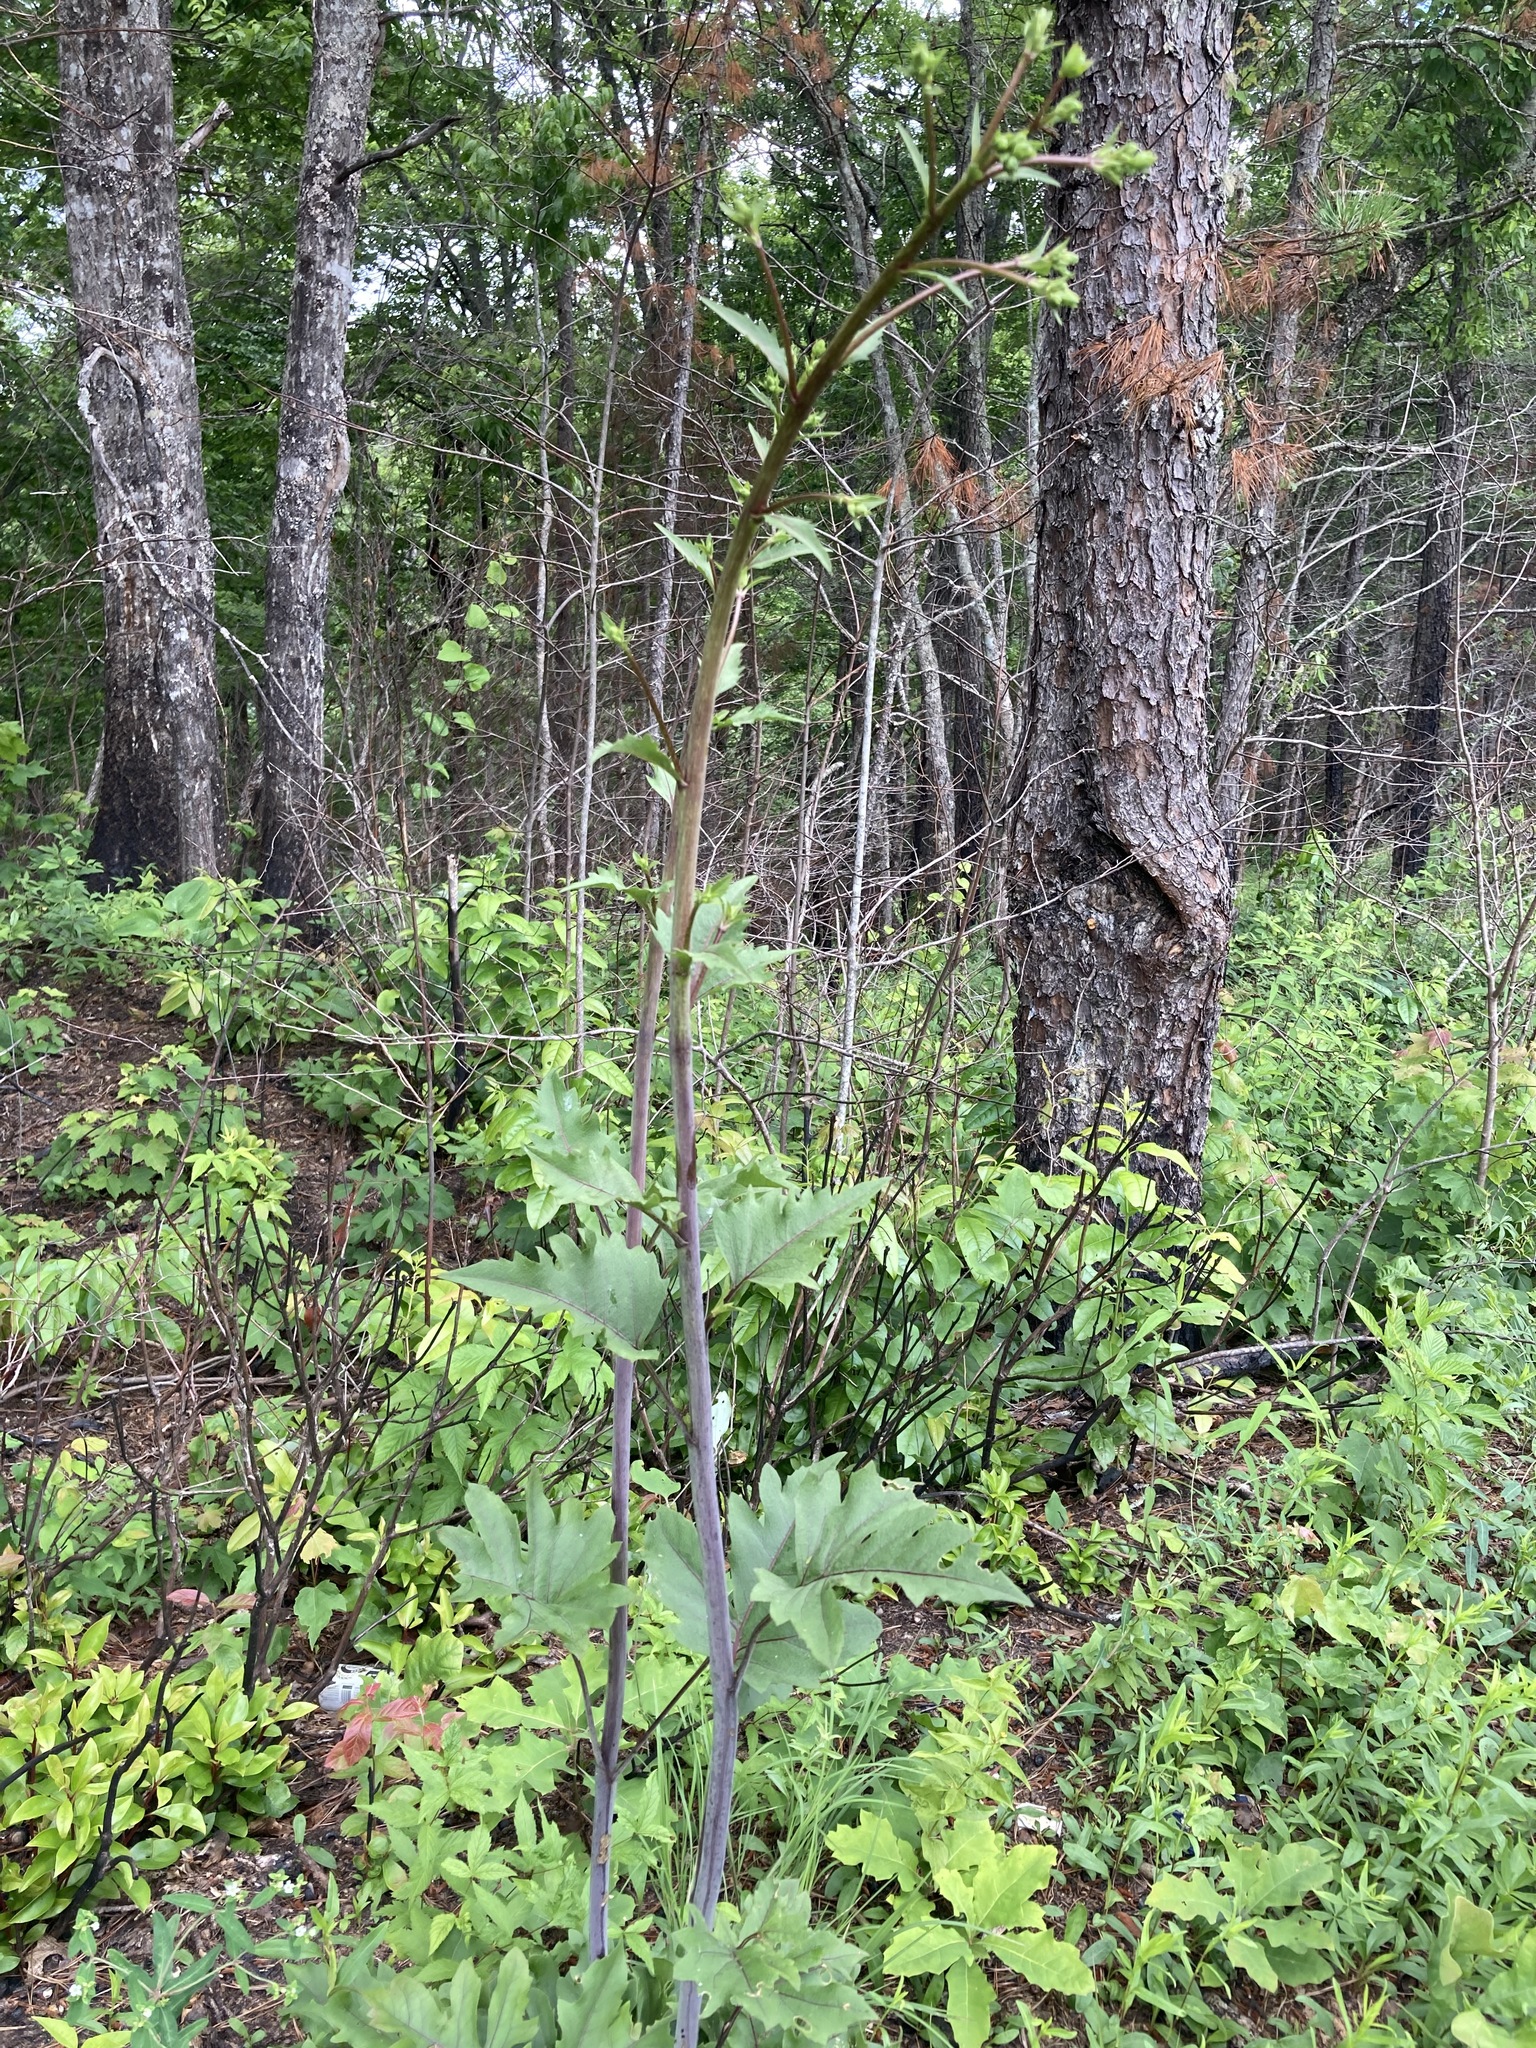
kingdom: Plantae
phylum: Tracheophyta
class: Magnoliopsida
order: Asterales
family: Asteraceae
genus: Silphium
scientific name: Silphium compositum
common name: Lesser basal-leaf rosinweed
